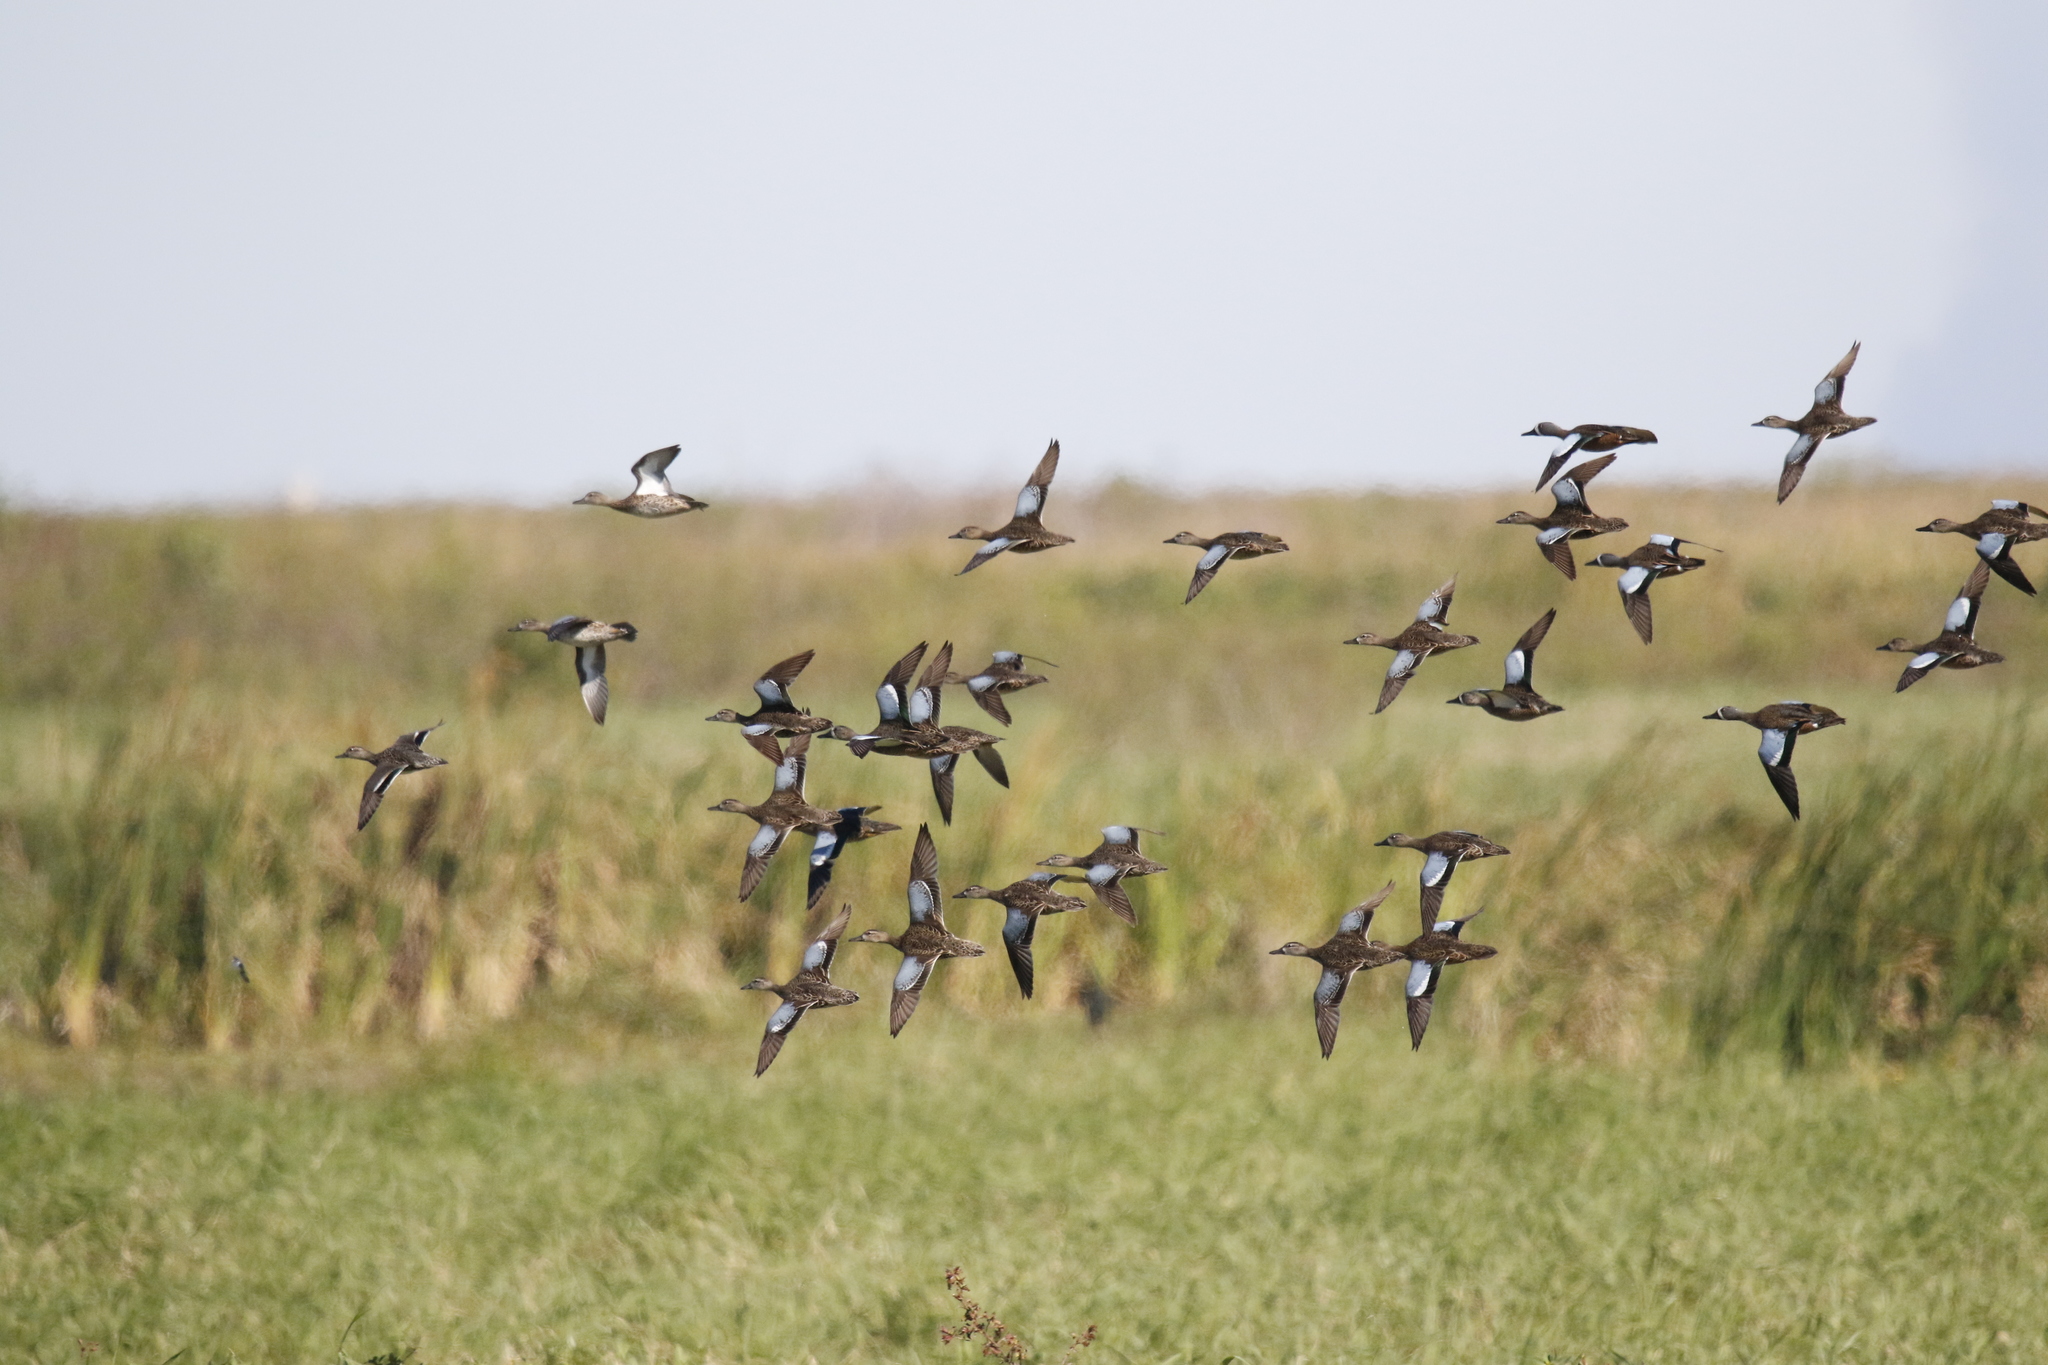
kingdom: Animalia
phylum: Chordata
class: Aves
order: Anseriformes
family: Anatidae
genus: Spatula
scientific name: Spatula discors
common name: Blue-winged teal
